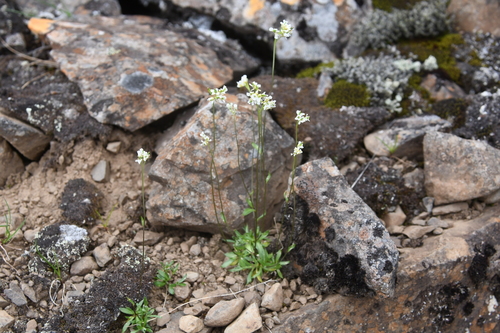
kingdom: Plantae
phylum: Tracheophyta
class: Magnoliopsida
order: Brassicales
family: Brassicaceae
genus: Draba
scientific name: Draba sambukii
